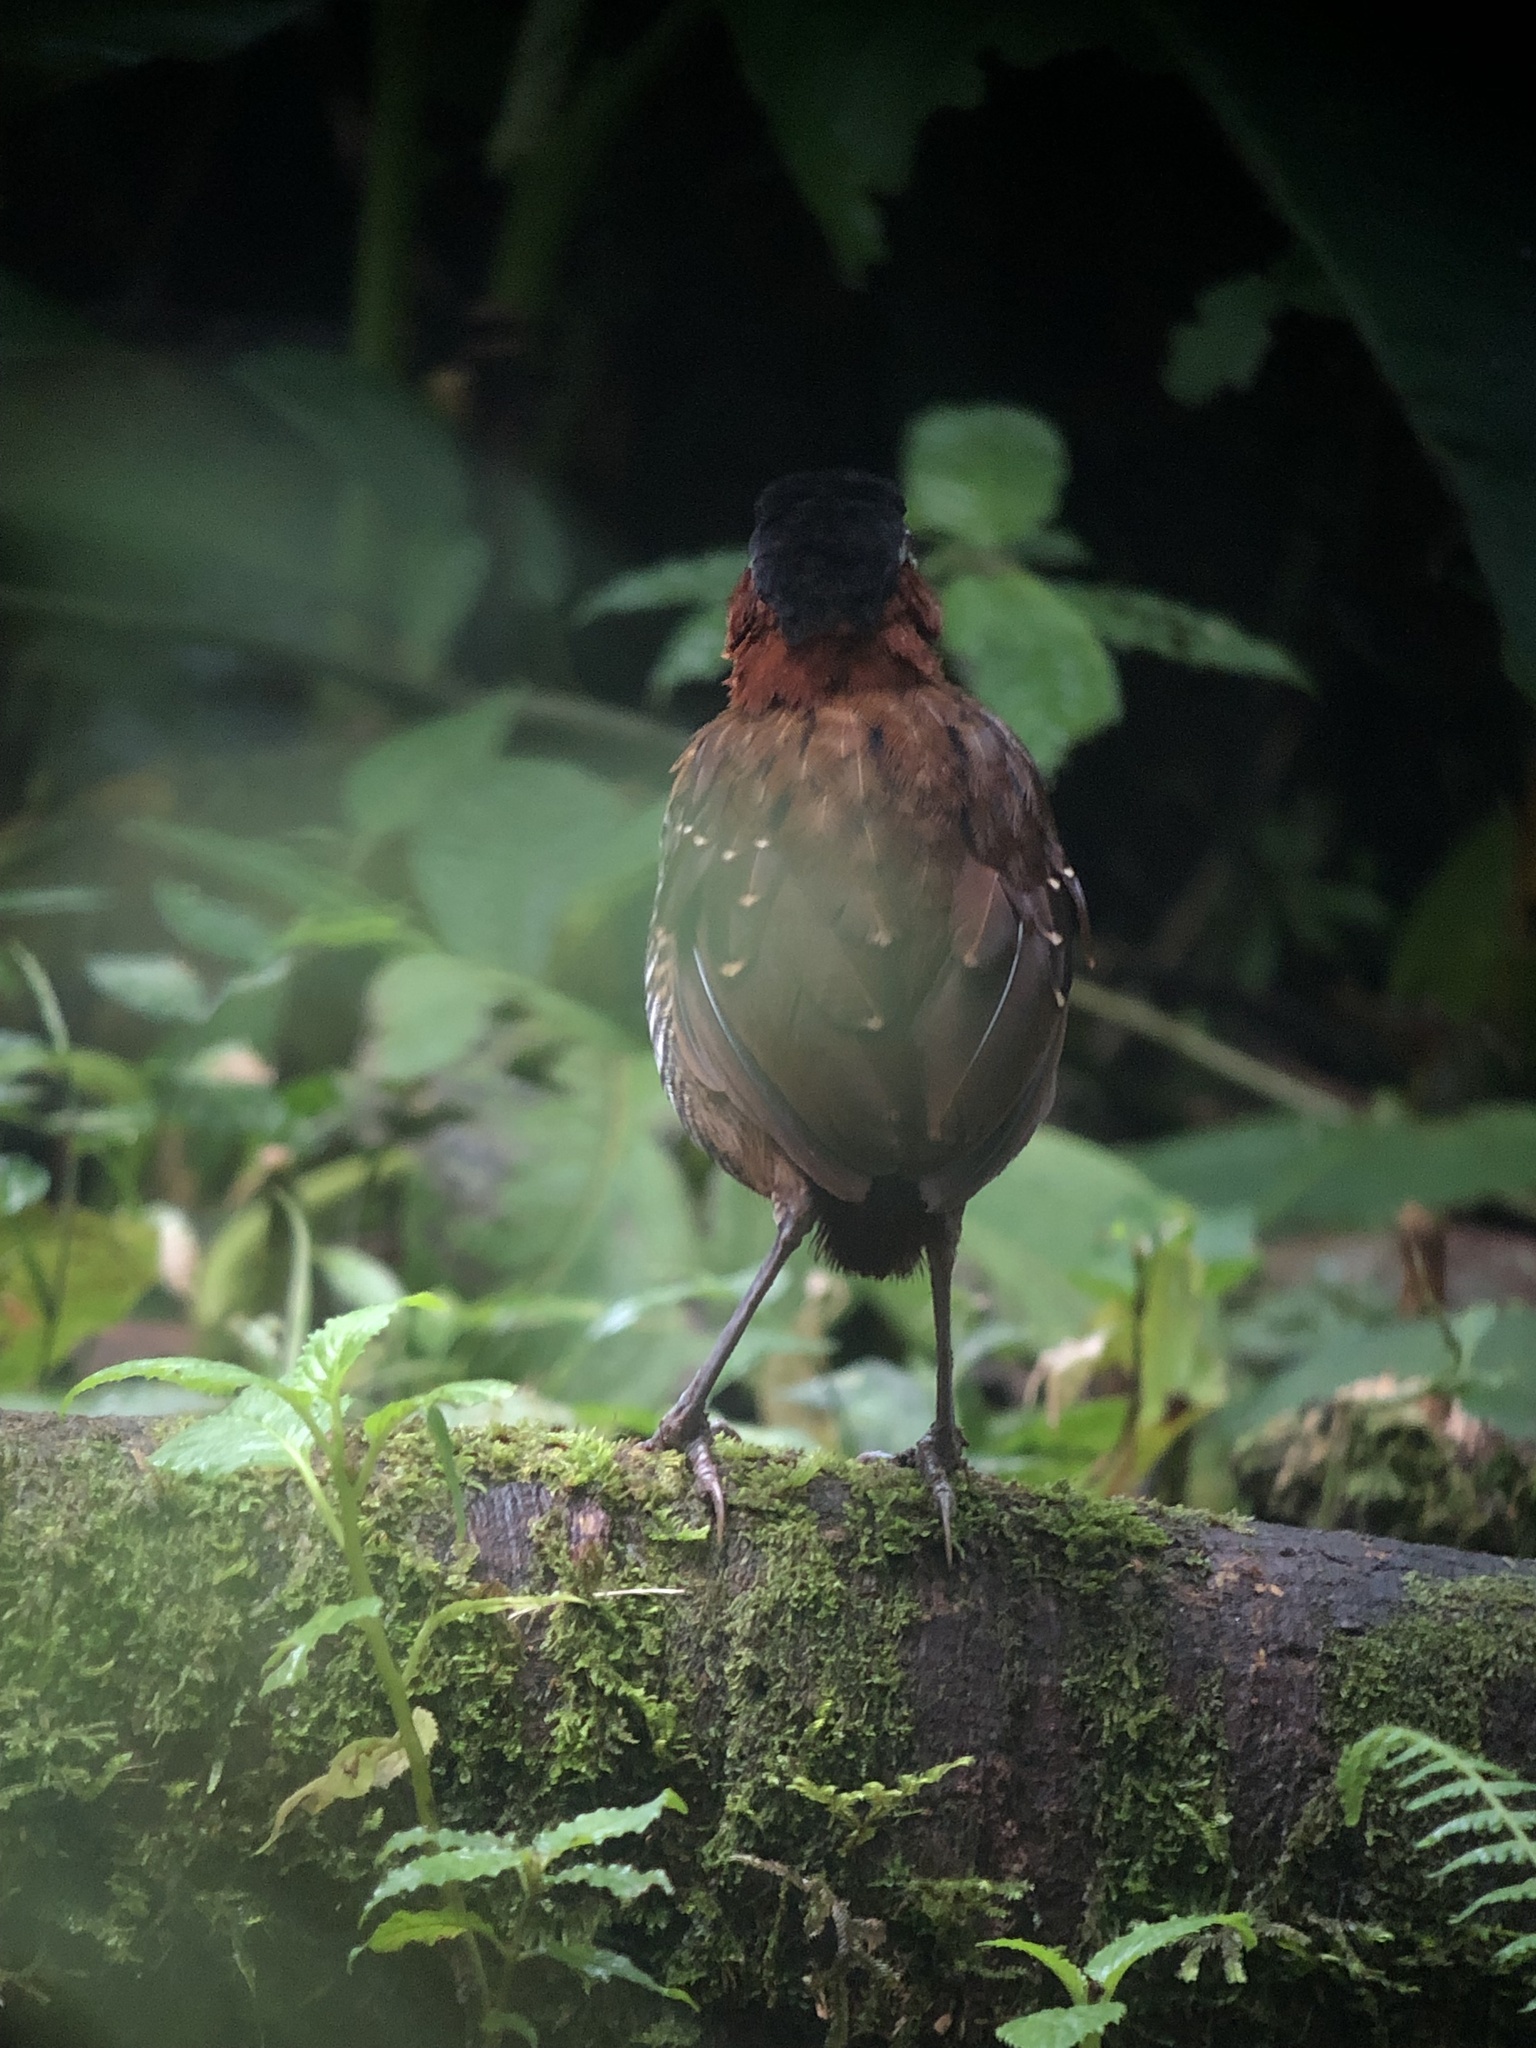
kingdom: Animalia
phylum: Chordata
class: Aves
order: Passeriformes
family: Conopophagidae
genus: Pittasoma
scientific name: Pittasoma michleri
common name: Black-crowned antpitta
